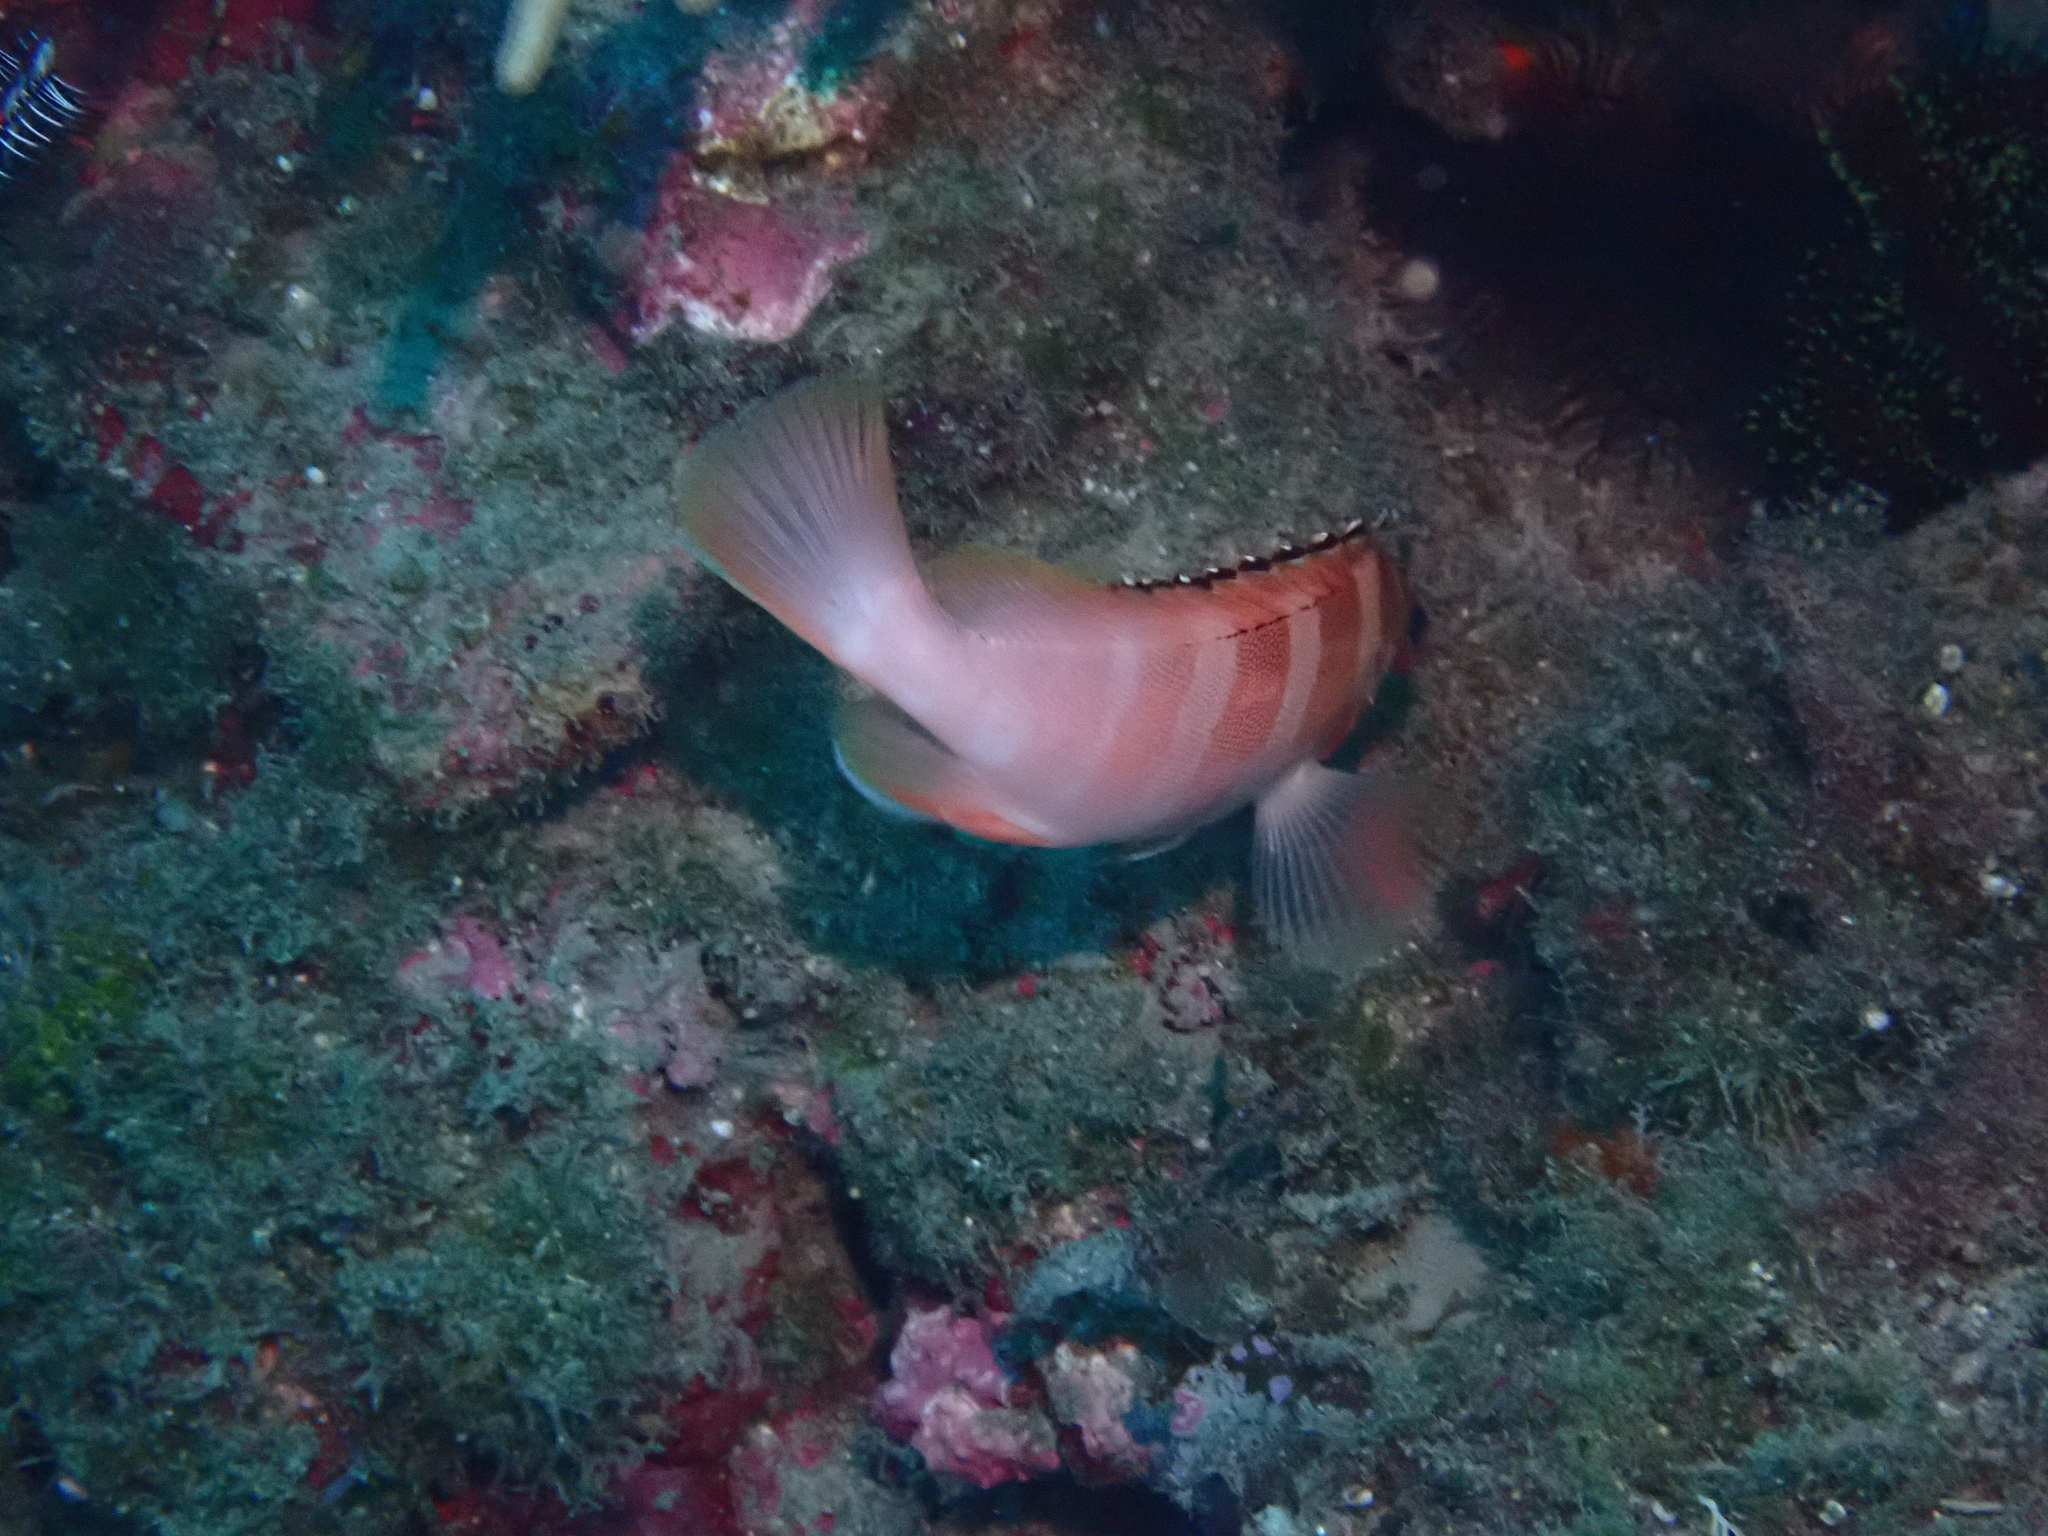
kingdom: Animalia
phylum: Chordata
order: Perciformes
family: Serranidae
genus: Epinephelus
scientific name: Epinephelus fasciatus
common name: Blacktip grouper
